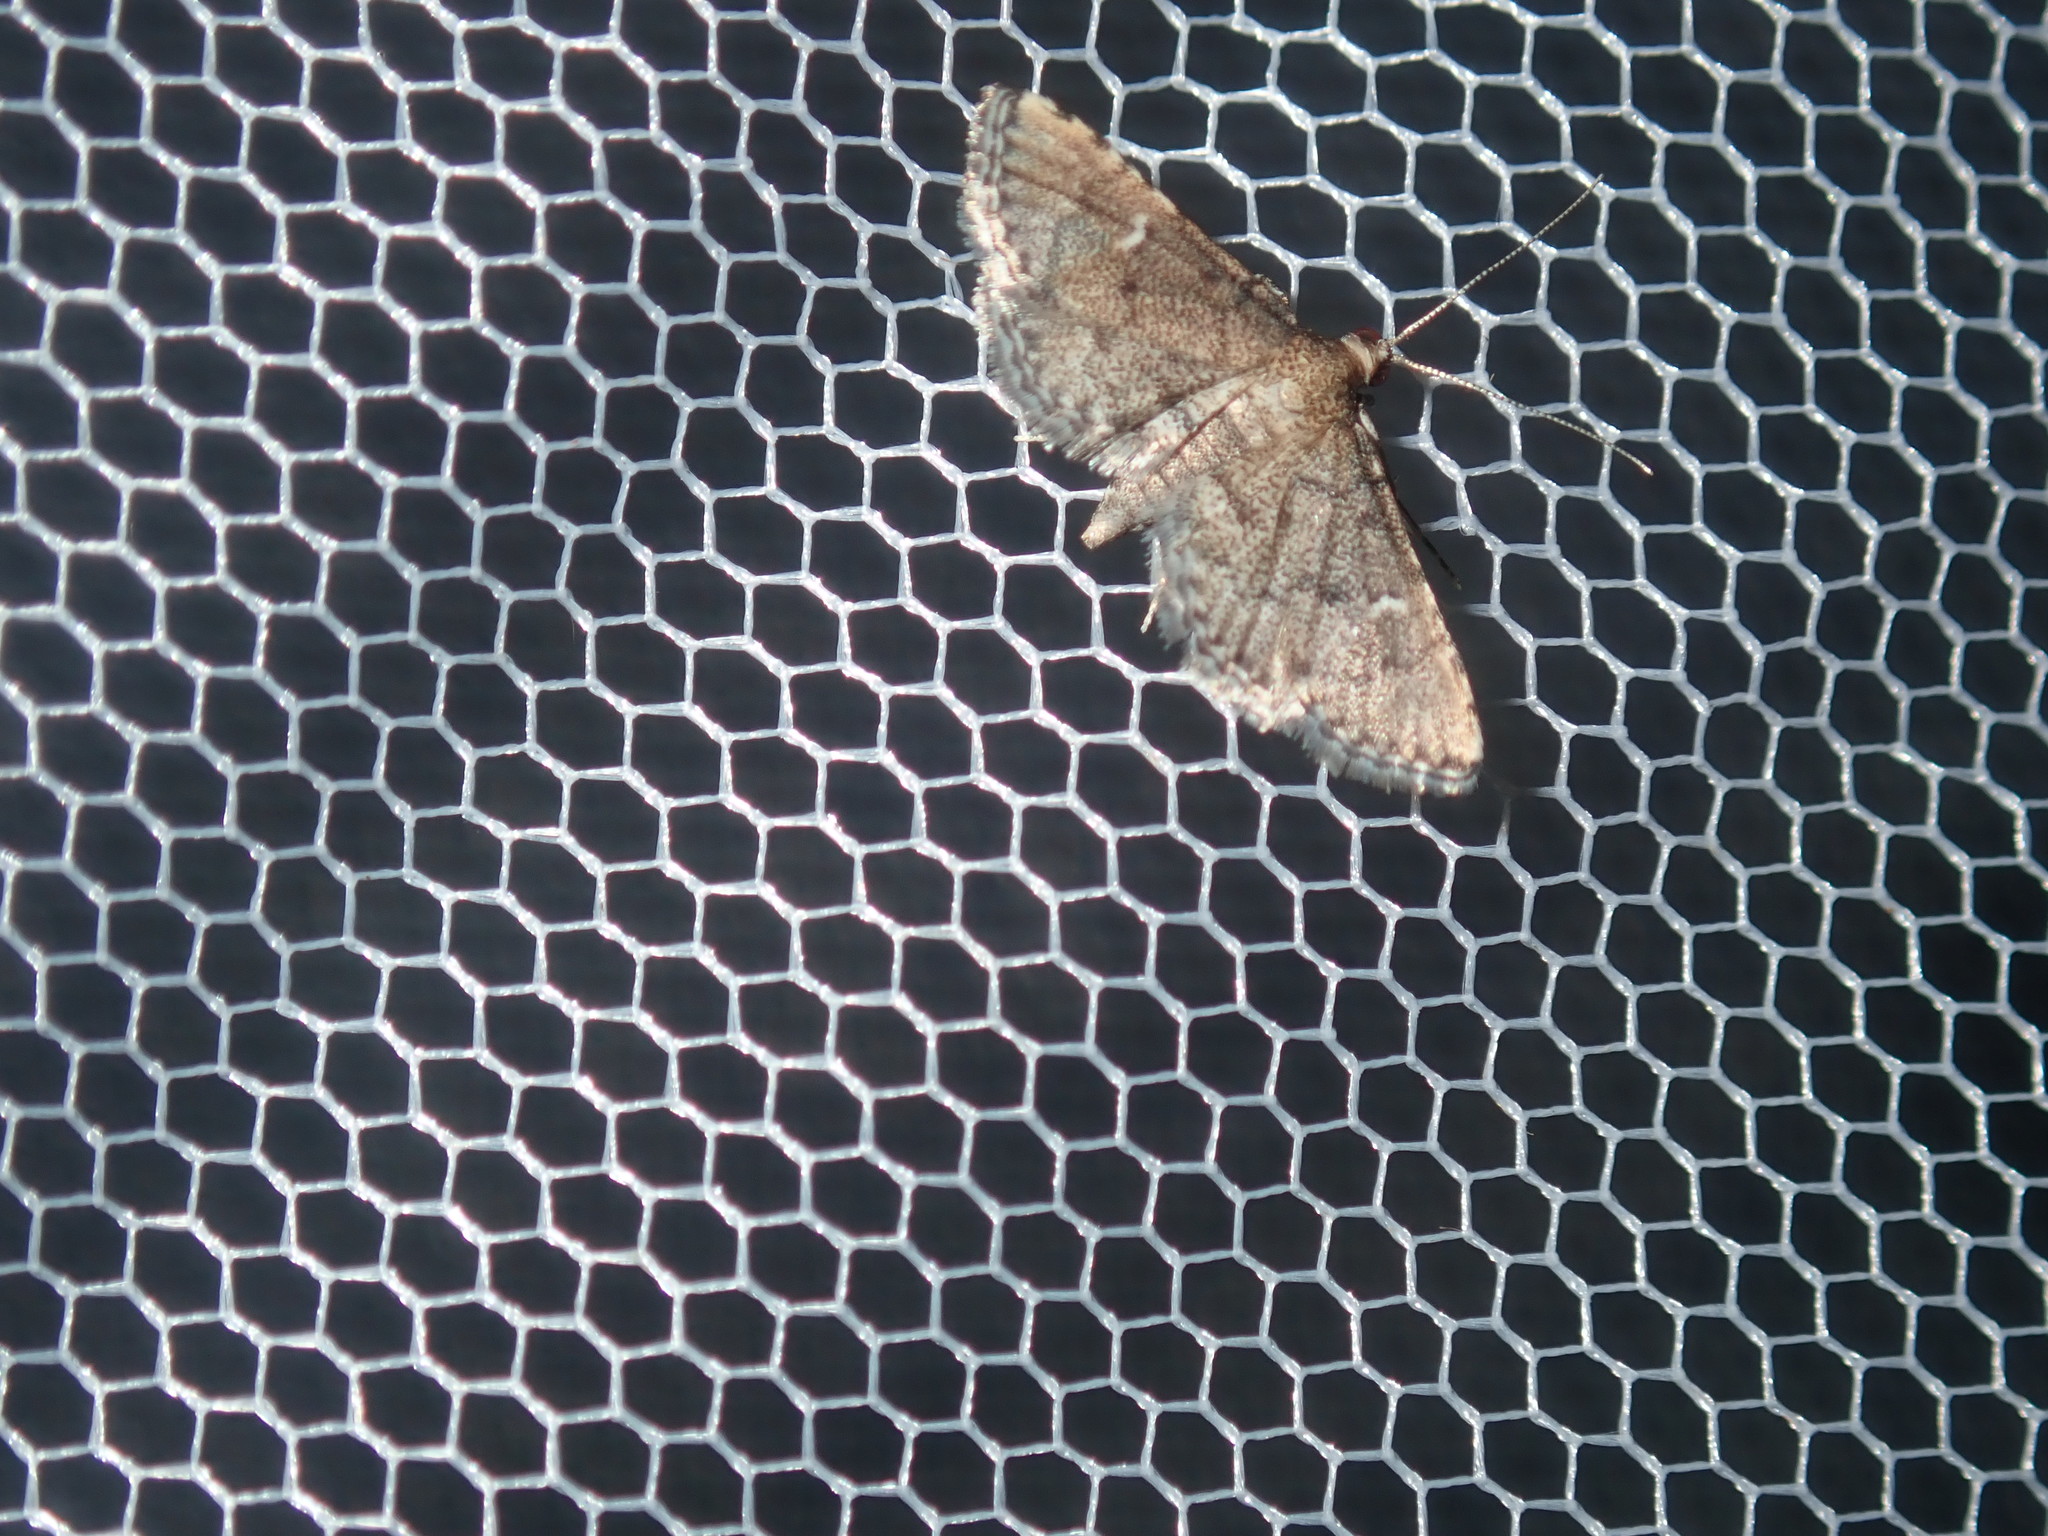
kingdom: Animalia
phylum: Arthropoda
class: Insecta
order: Lepidoptera
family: Crambidae
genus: Metasia
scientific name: Metasia capnochroa
